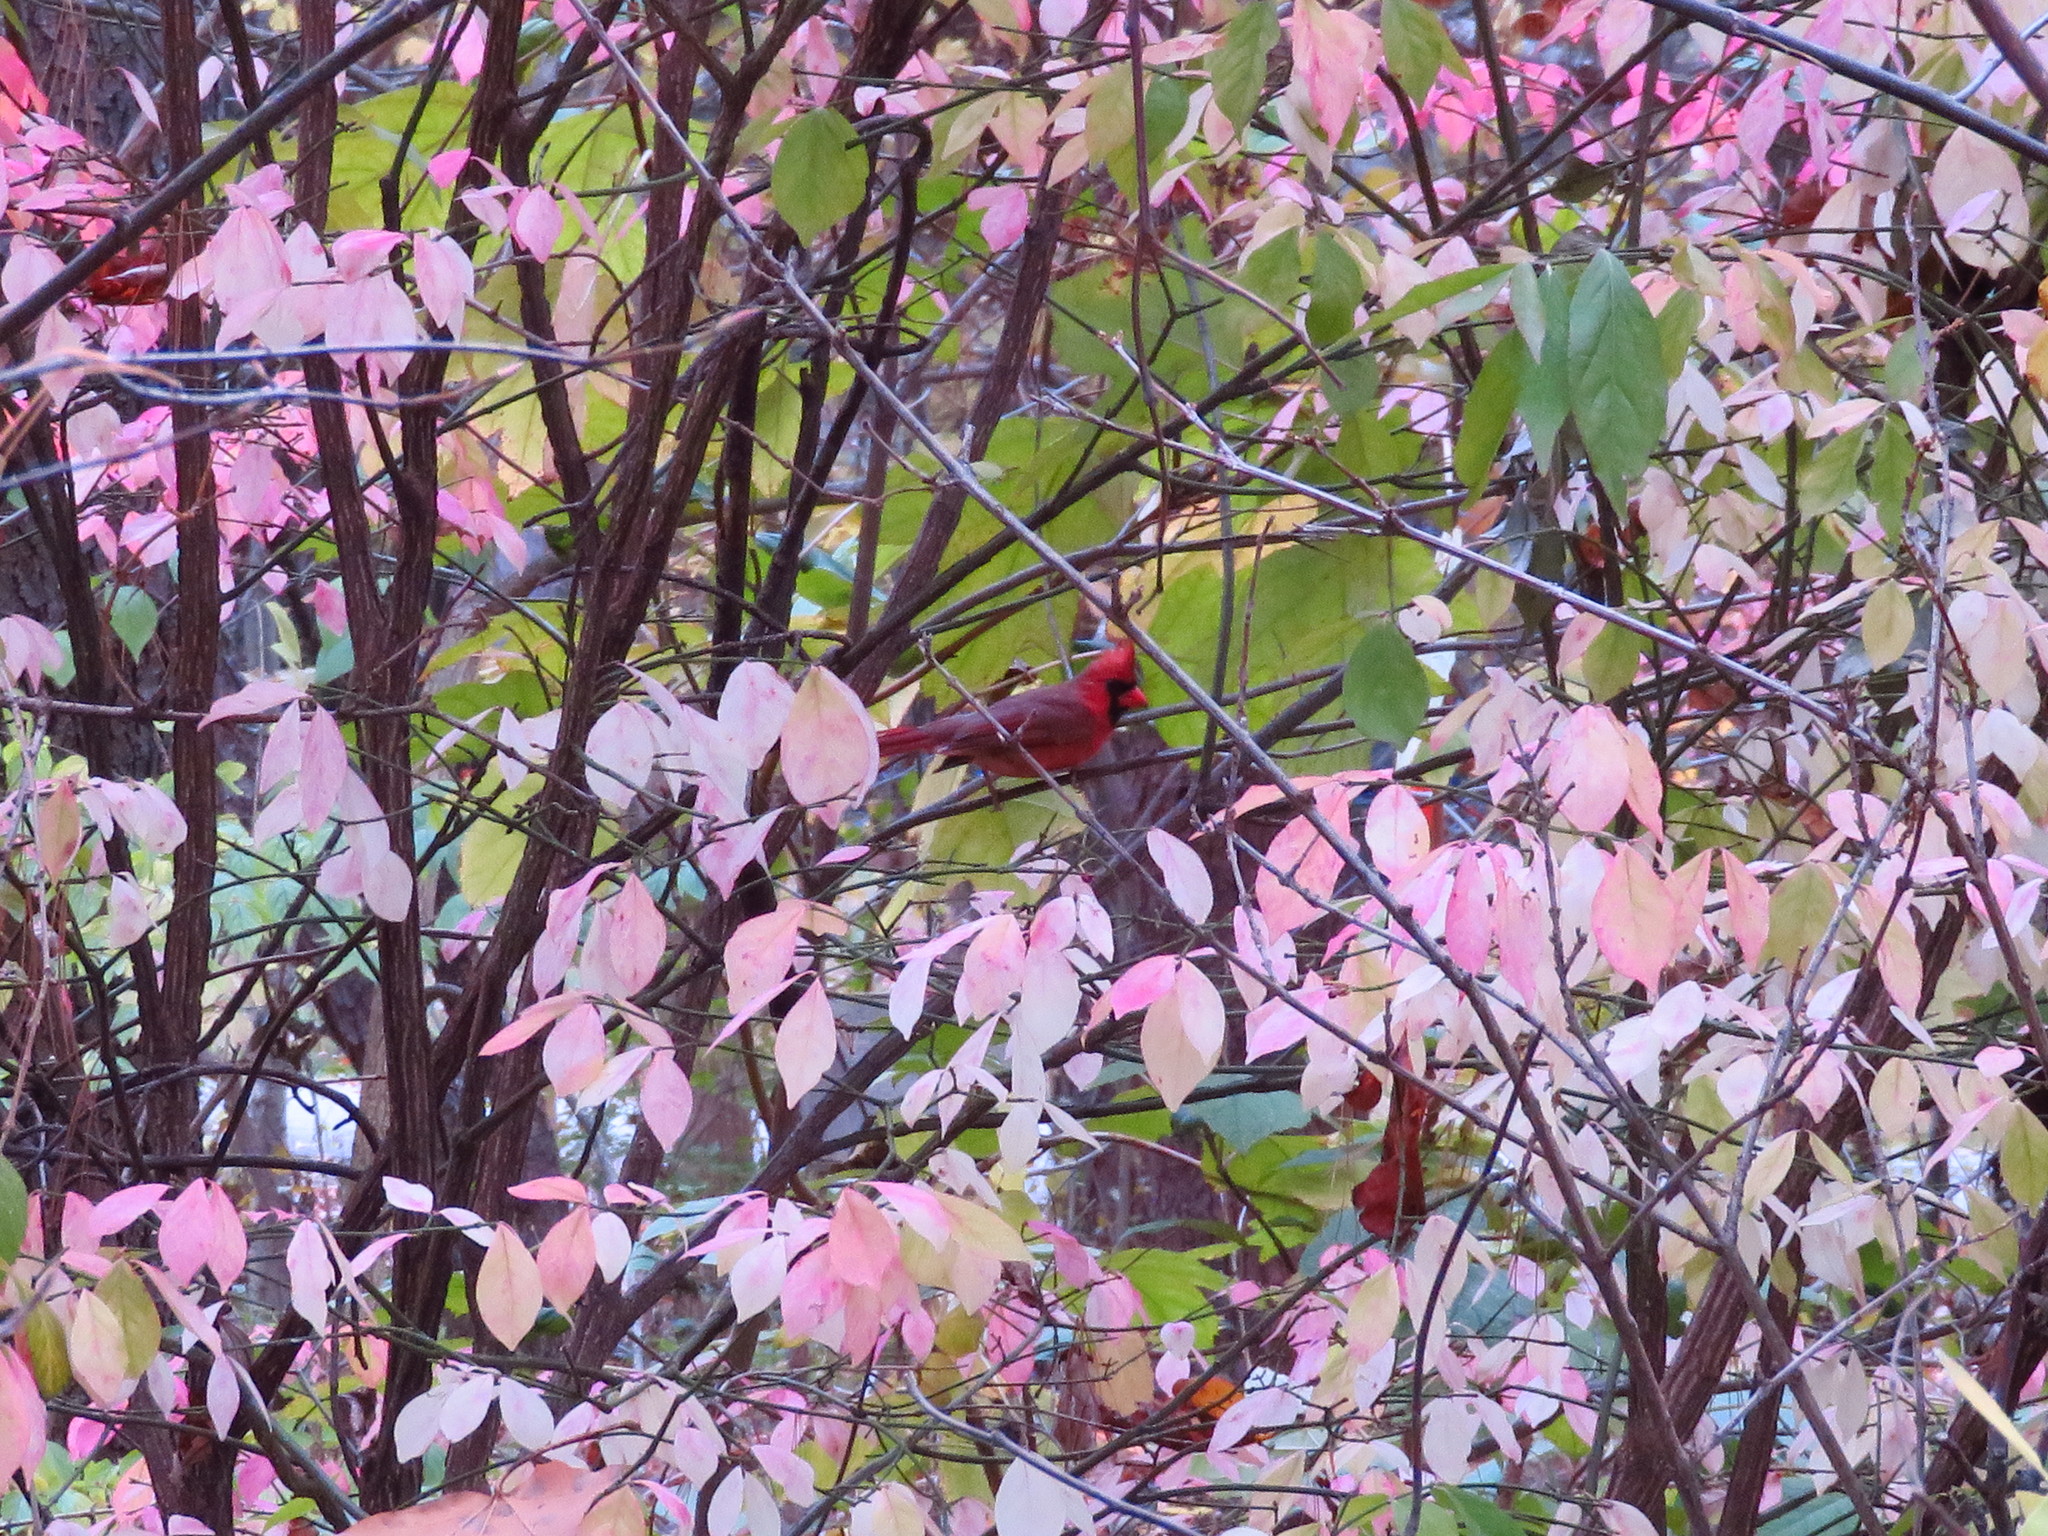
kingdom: Animalia
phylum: Chordata
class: Aves
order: Passeriformes
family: Cardinalidae
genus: Cardinalis
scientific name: Cardinalis cardinalis
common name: Northern cardinal
